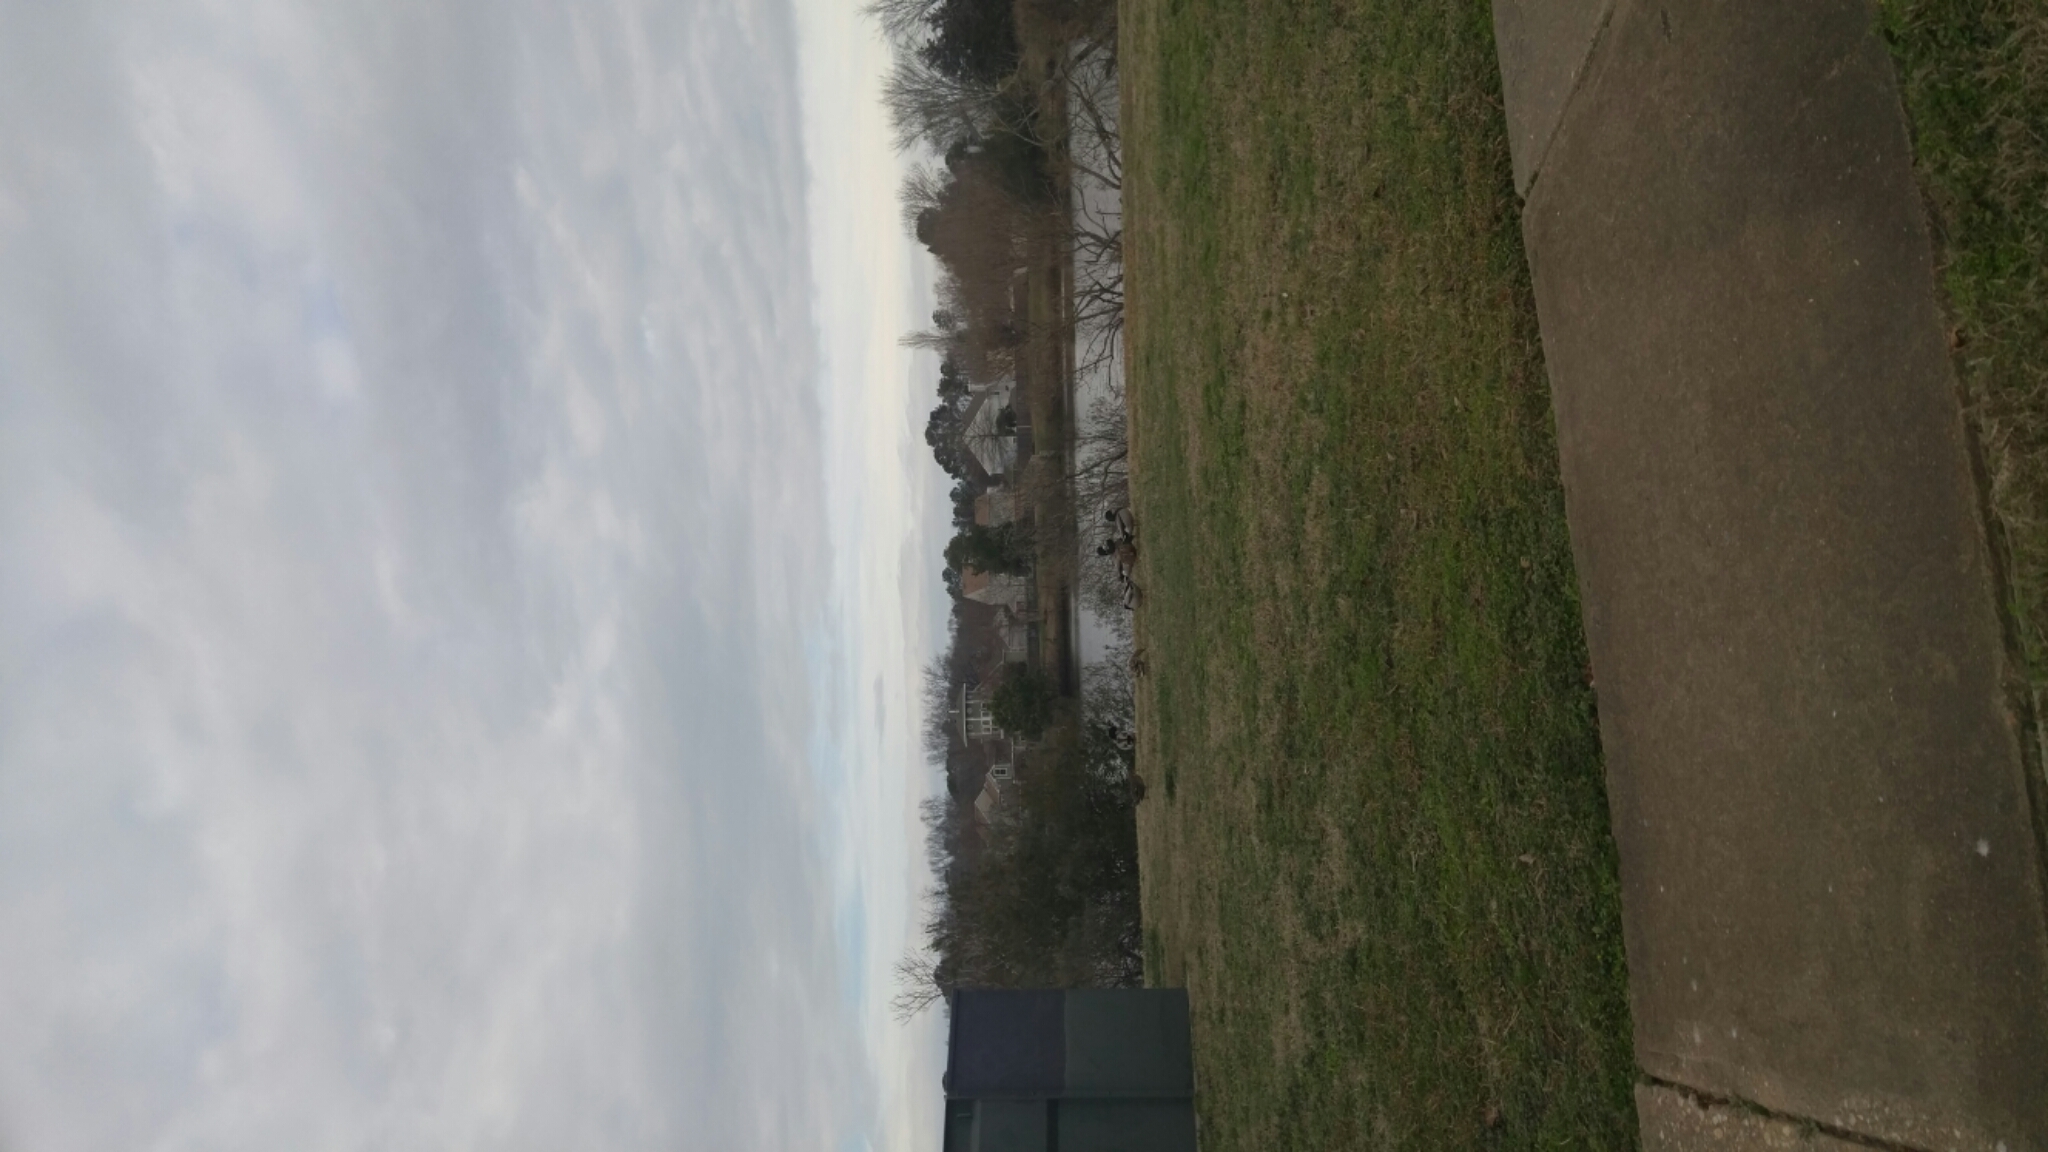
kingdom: Animalia
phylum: Chordata
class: Aves
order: Anseriformes
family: Anatidae
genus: Anas
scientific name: Anas platyrhynchos
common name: Mallard
